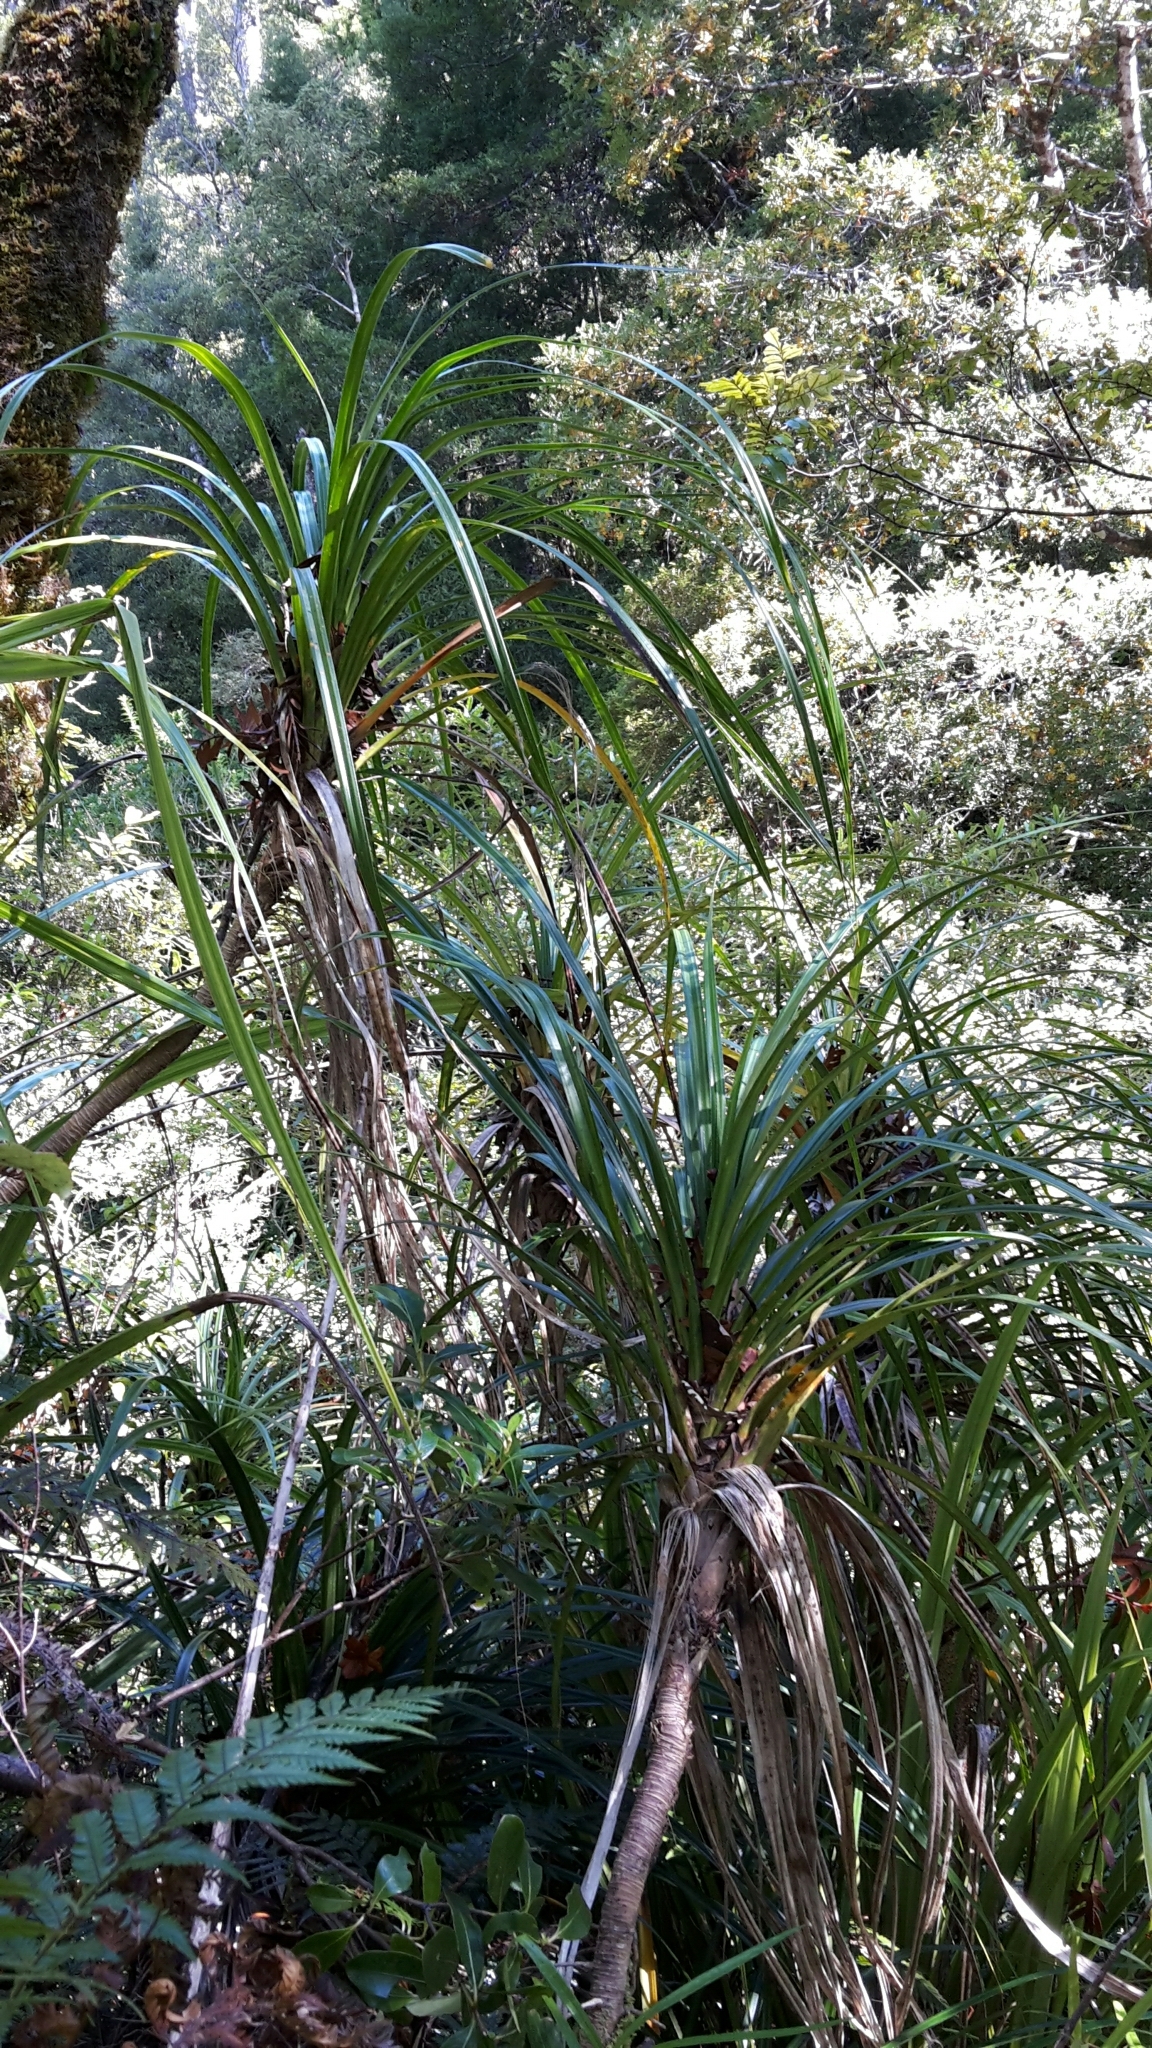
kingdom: Plantae
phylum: Tracheophyta
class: Liliopsida
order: Pandanales
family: Pandanaceae
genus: Freycinetia
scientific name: Freycinetia banksii
